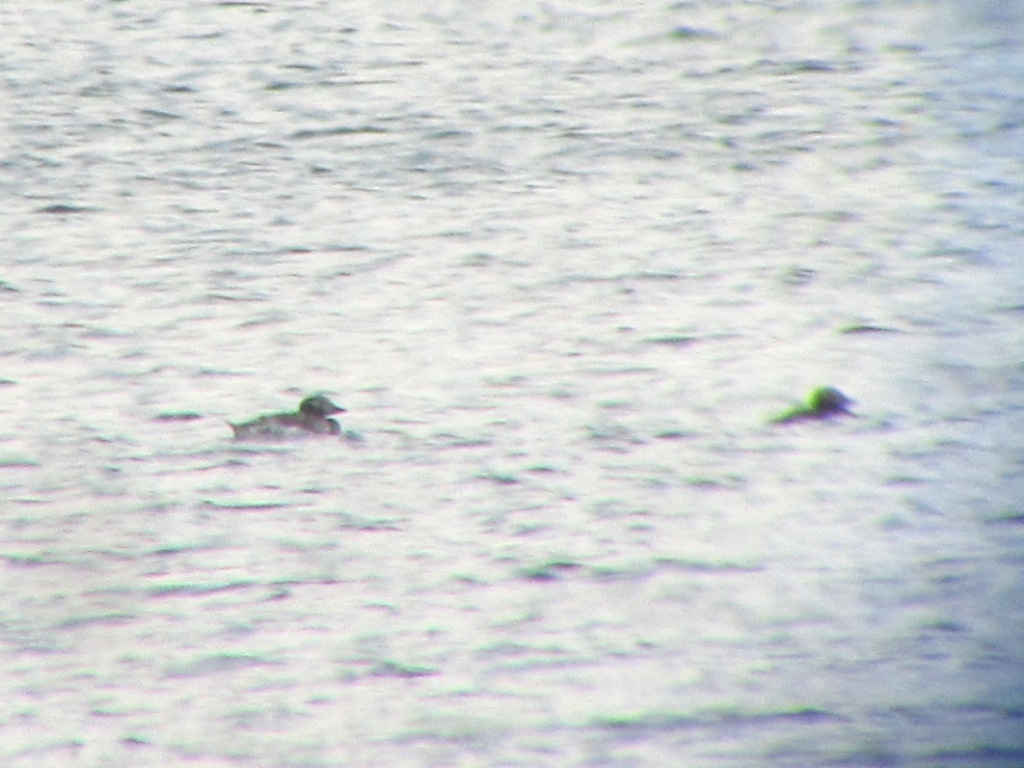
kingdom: Animalia
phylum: Chordata
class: Aves
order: Anseriformes
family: Anatidae
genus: Clangula
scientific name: Clangula hyemalis
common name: Long-tailed duck
